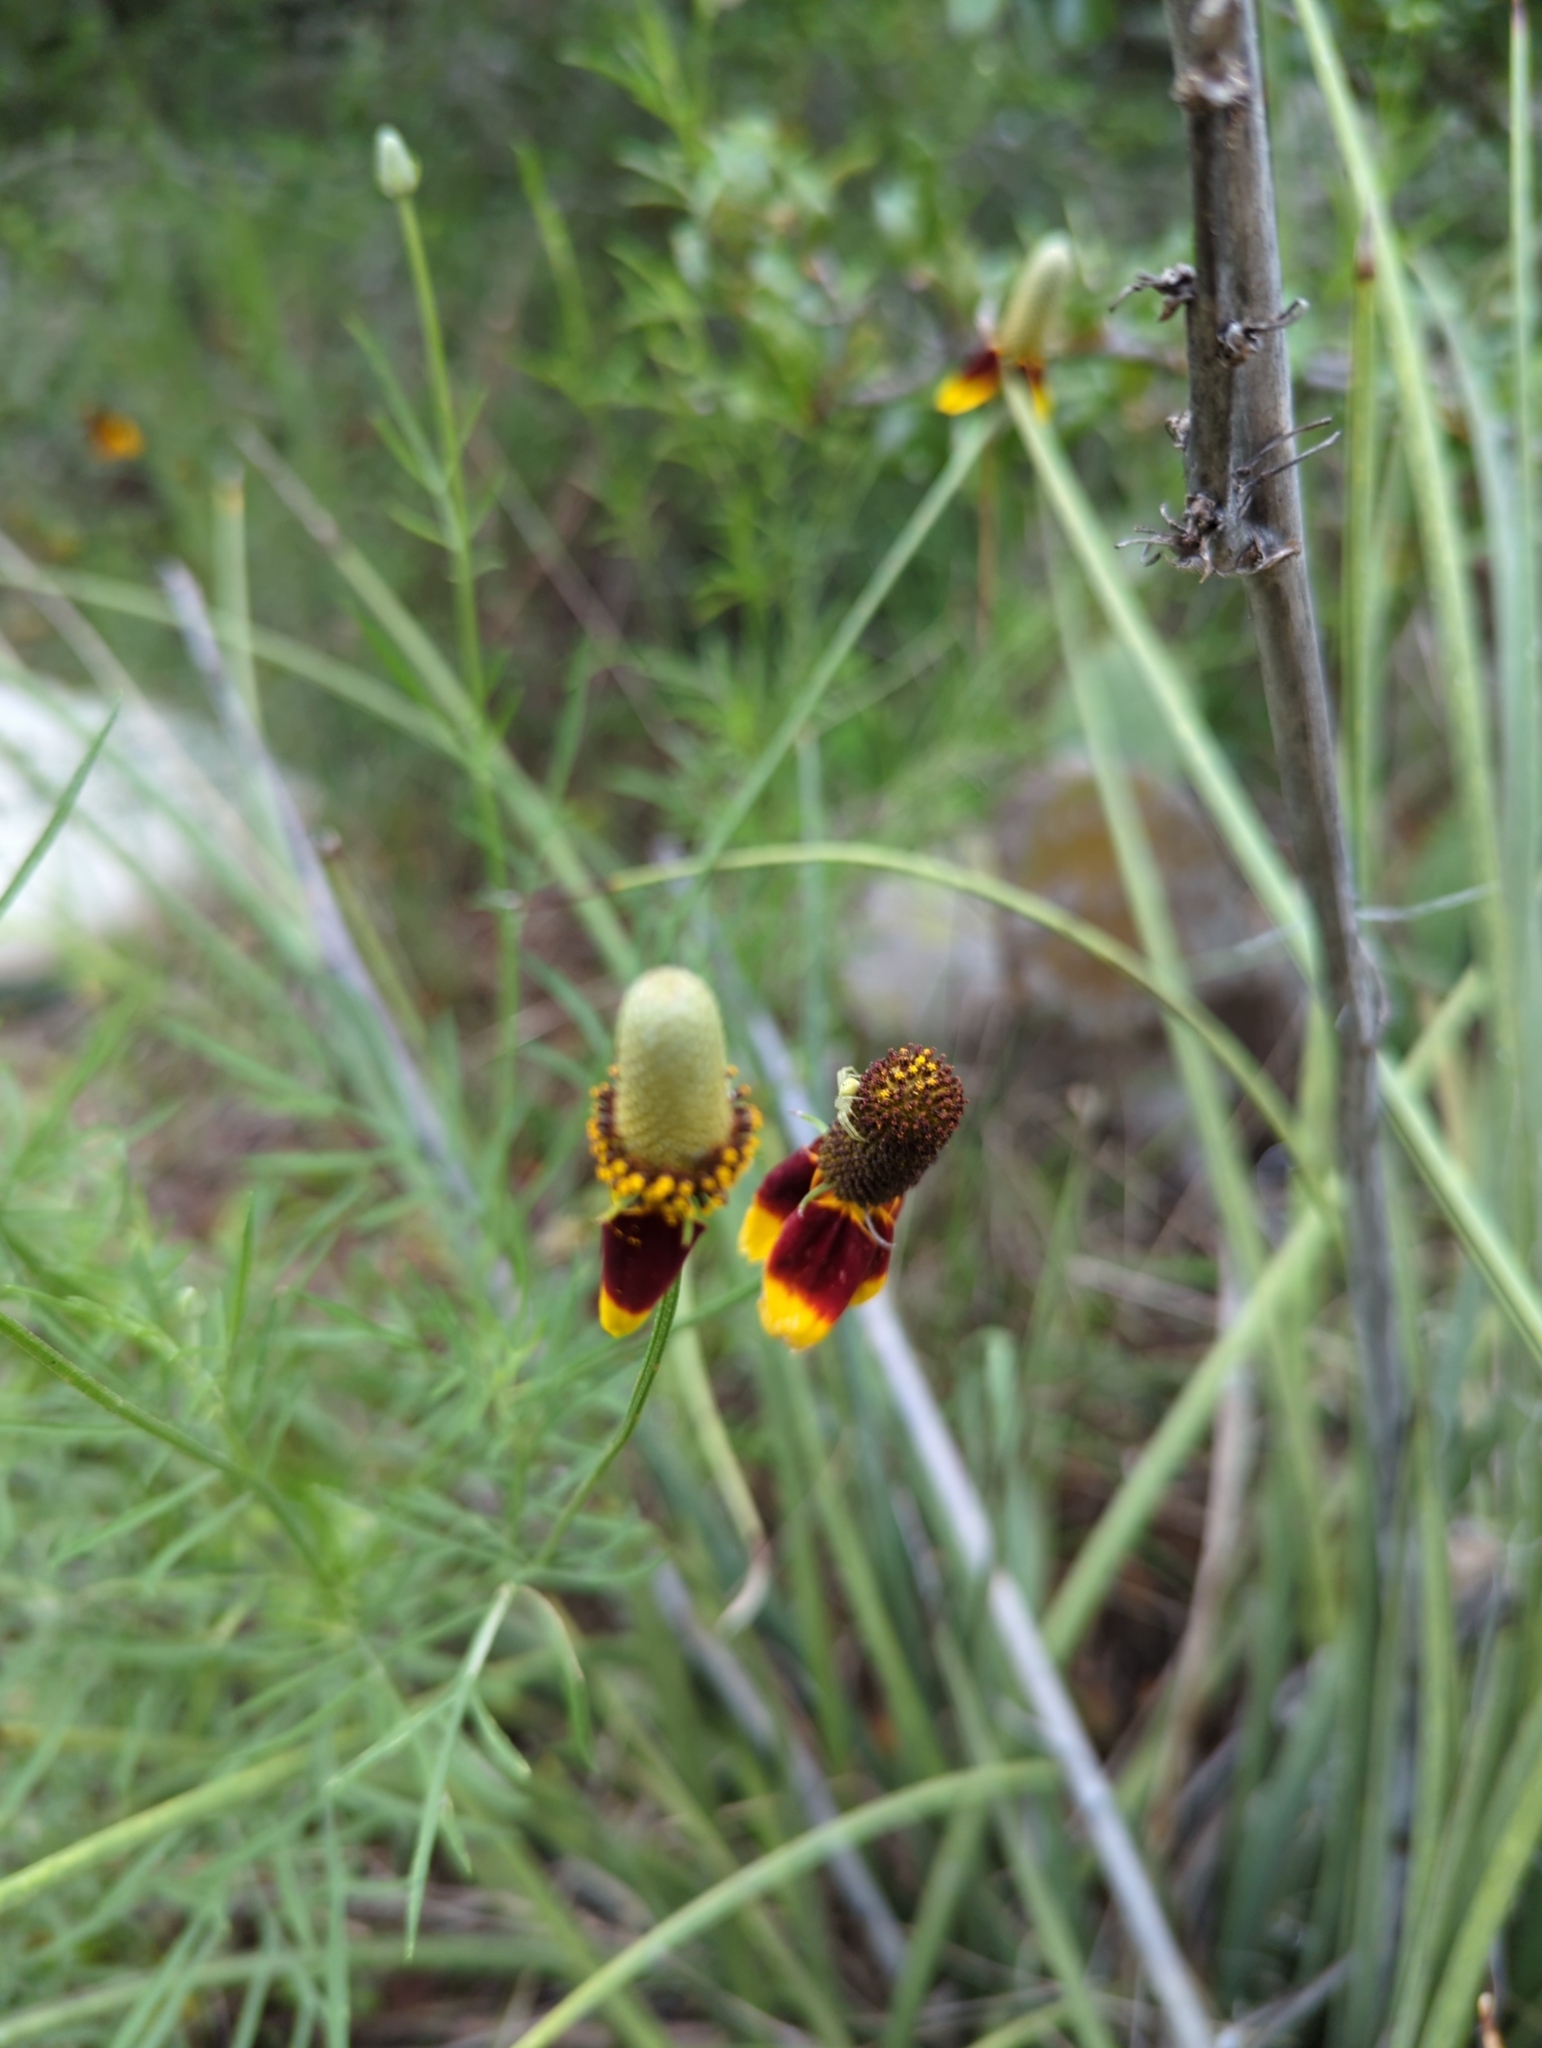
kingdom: Plantae
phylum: Tracheophyta
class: Magnoliopsida
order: Asterales
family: Asteraceae
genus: Ratibida
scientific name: Ratibida columnifera
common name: Prairie coneflower
